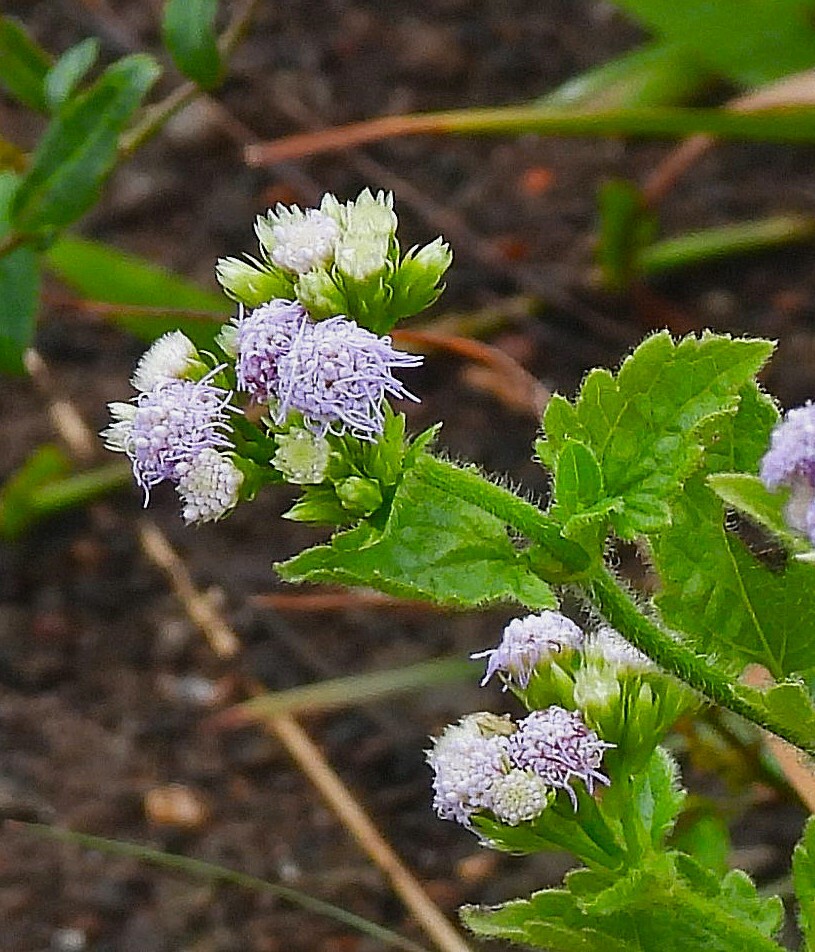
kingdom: Plantae
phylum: Tracheophyta
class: Magnoliopsida
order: Asterales
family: Asteraceae
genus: Praxelis
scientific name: Praxelis clematidea
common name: Praxelis
